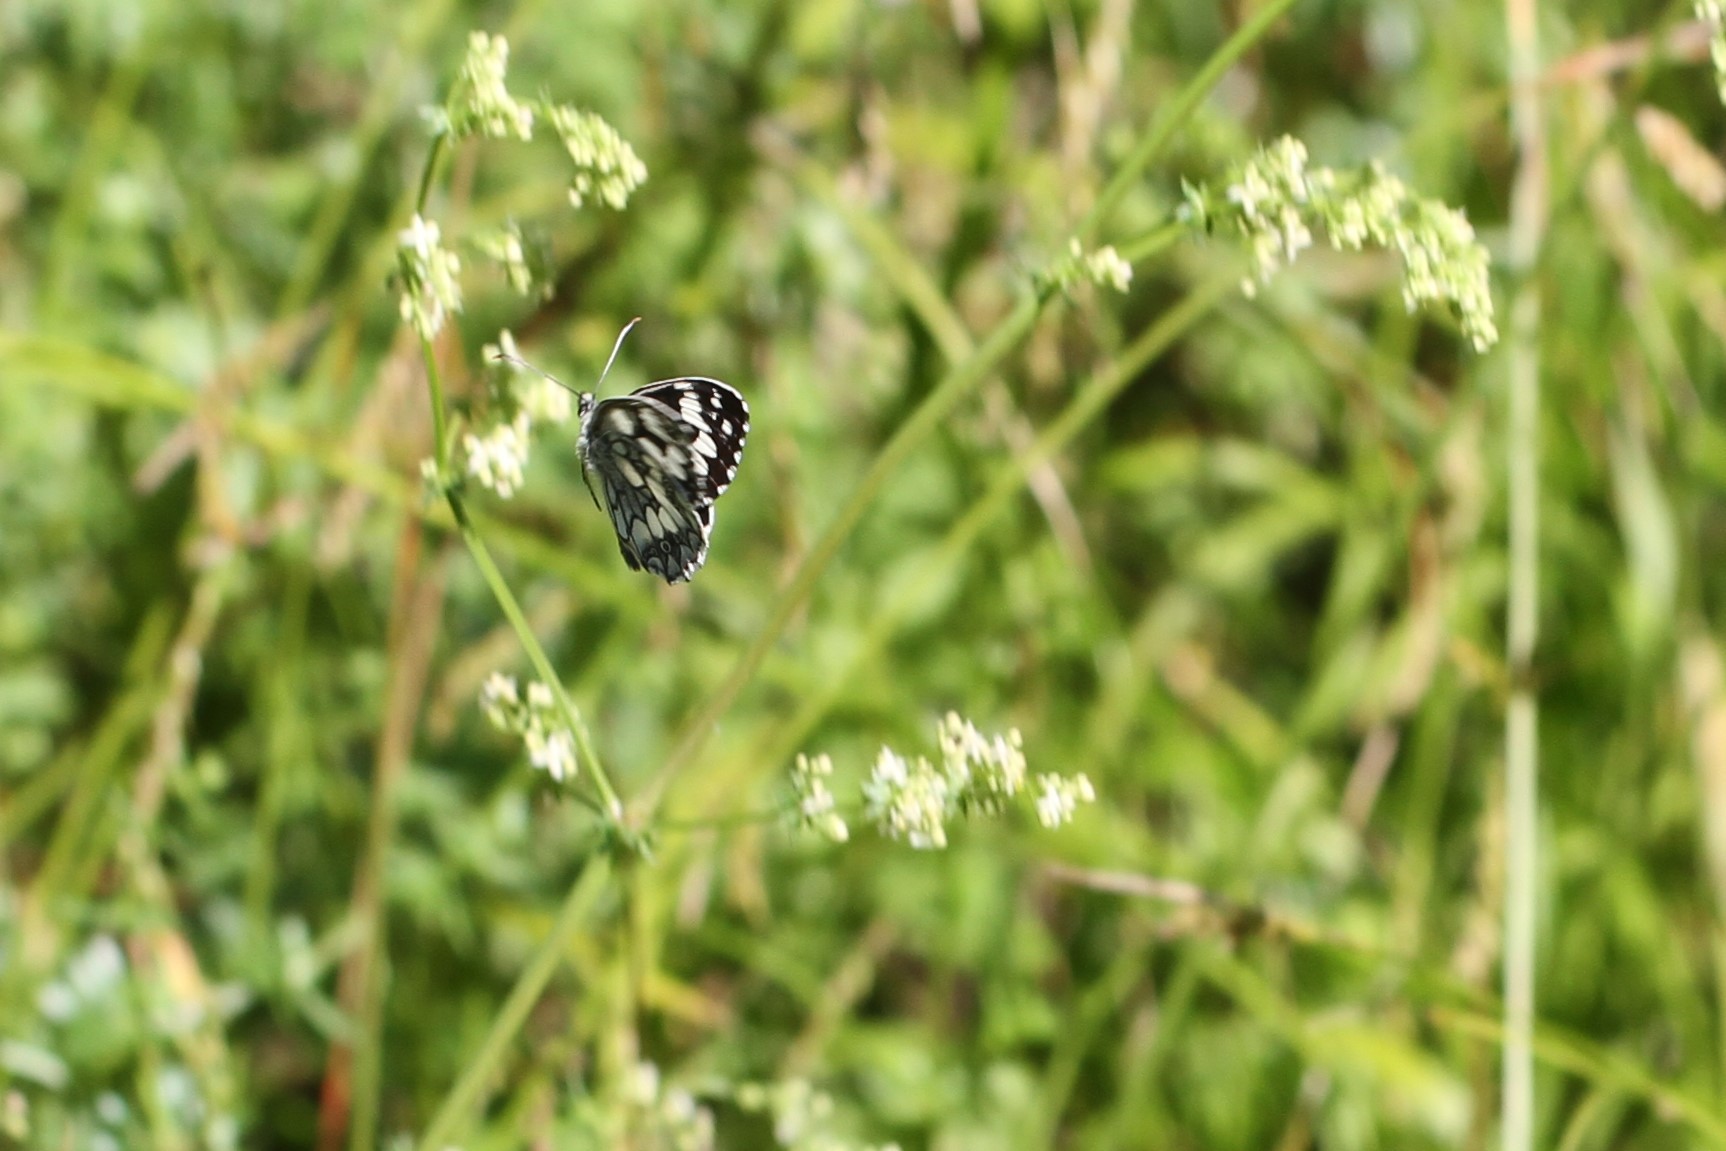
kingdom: Animalia
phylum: Arthropoda
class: Insecta
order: Lepidoptera
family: Nymphalidae
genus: Melanargia
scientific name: Melanargia galathea
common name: Marbled white
